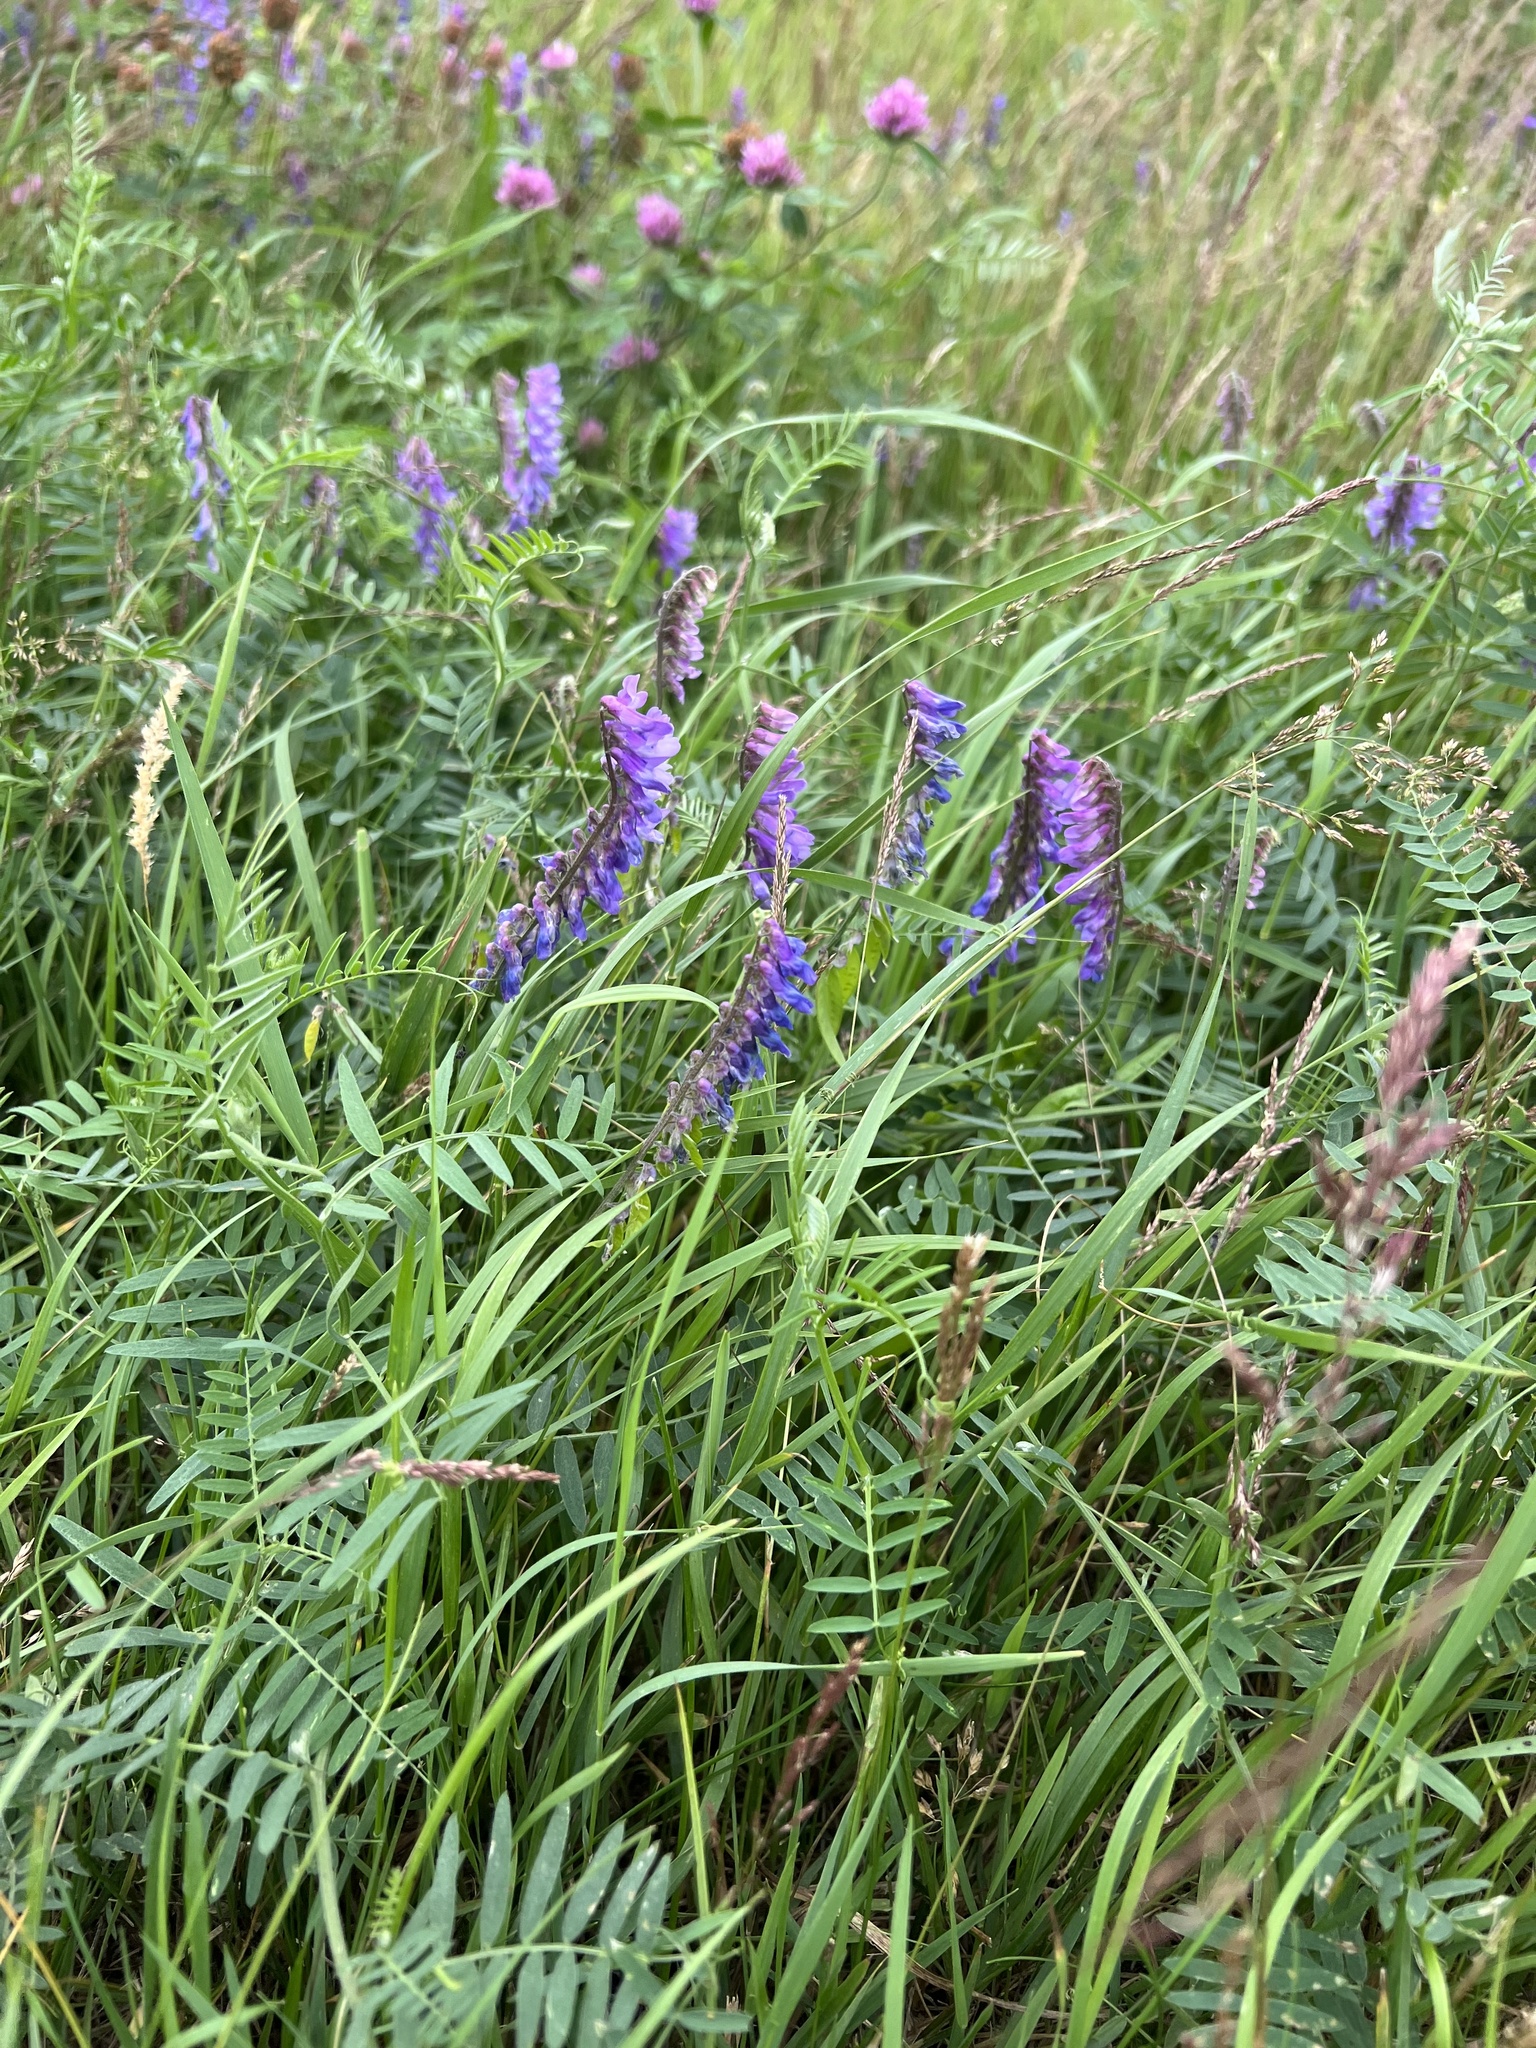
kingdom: Plantae
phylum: Tracheophyta
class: Magnoliopsida
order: Fabales
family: Fabaceae
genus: Vicia
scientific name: Vicia cracca
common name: Bird vetch
